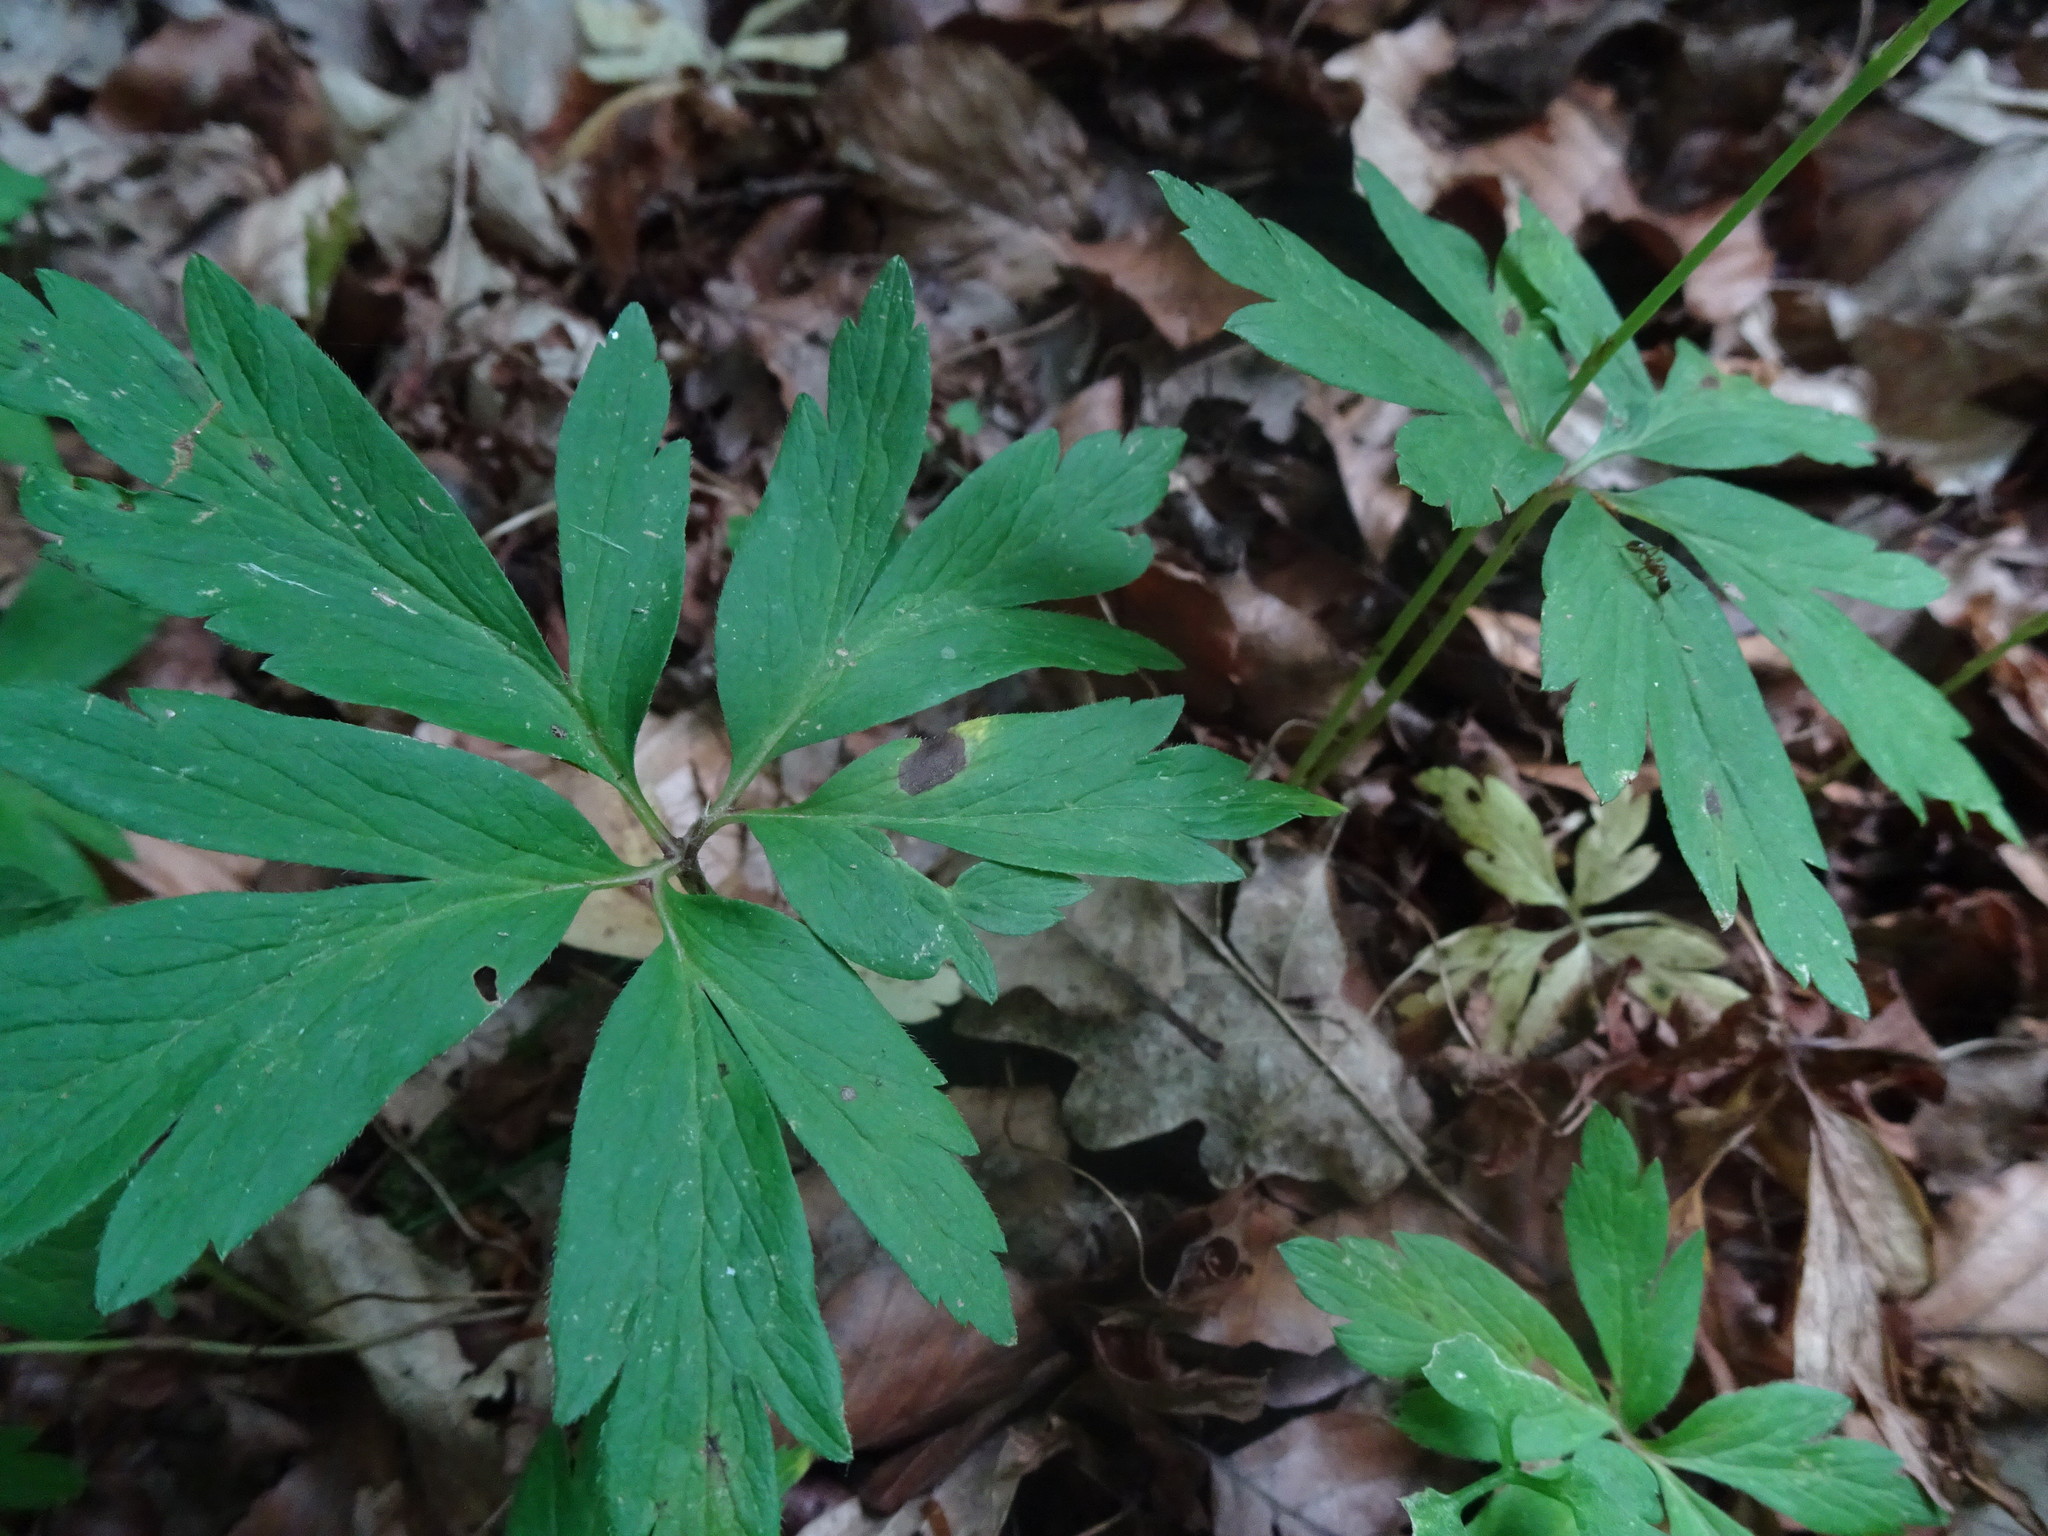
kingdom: Plantae
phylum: Tracheophyta
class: Magnoliopsida
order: Ranunculales
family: Ranunculaceae
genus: Anemone
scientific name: Anemone nemorosa
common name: Wood anemone
